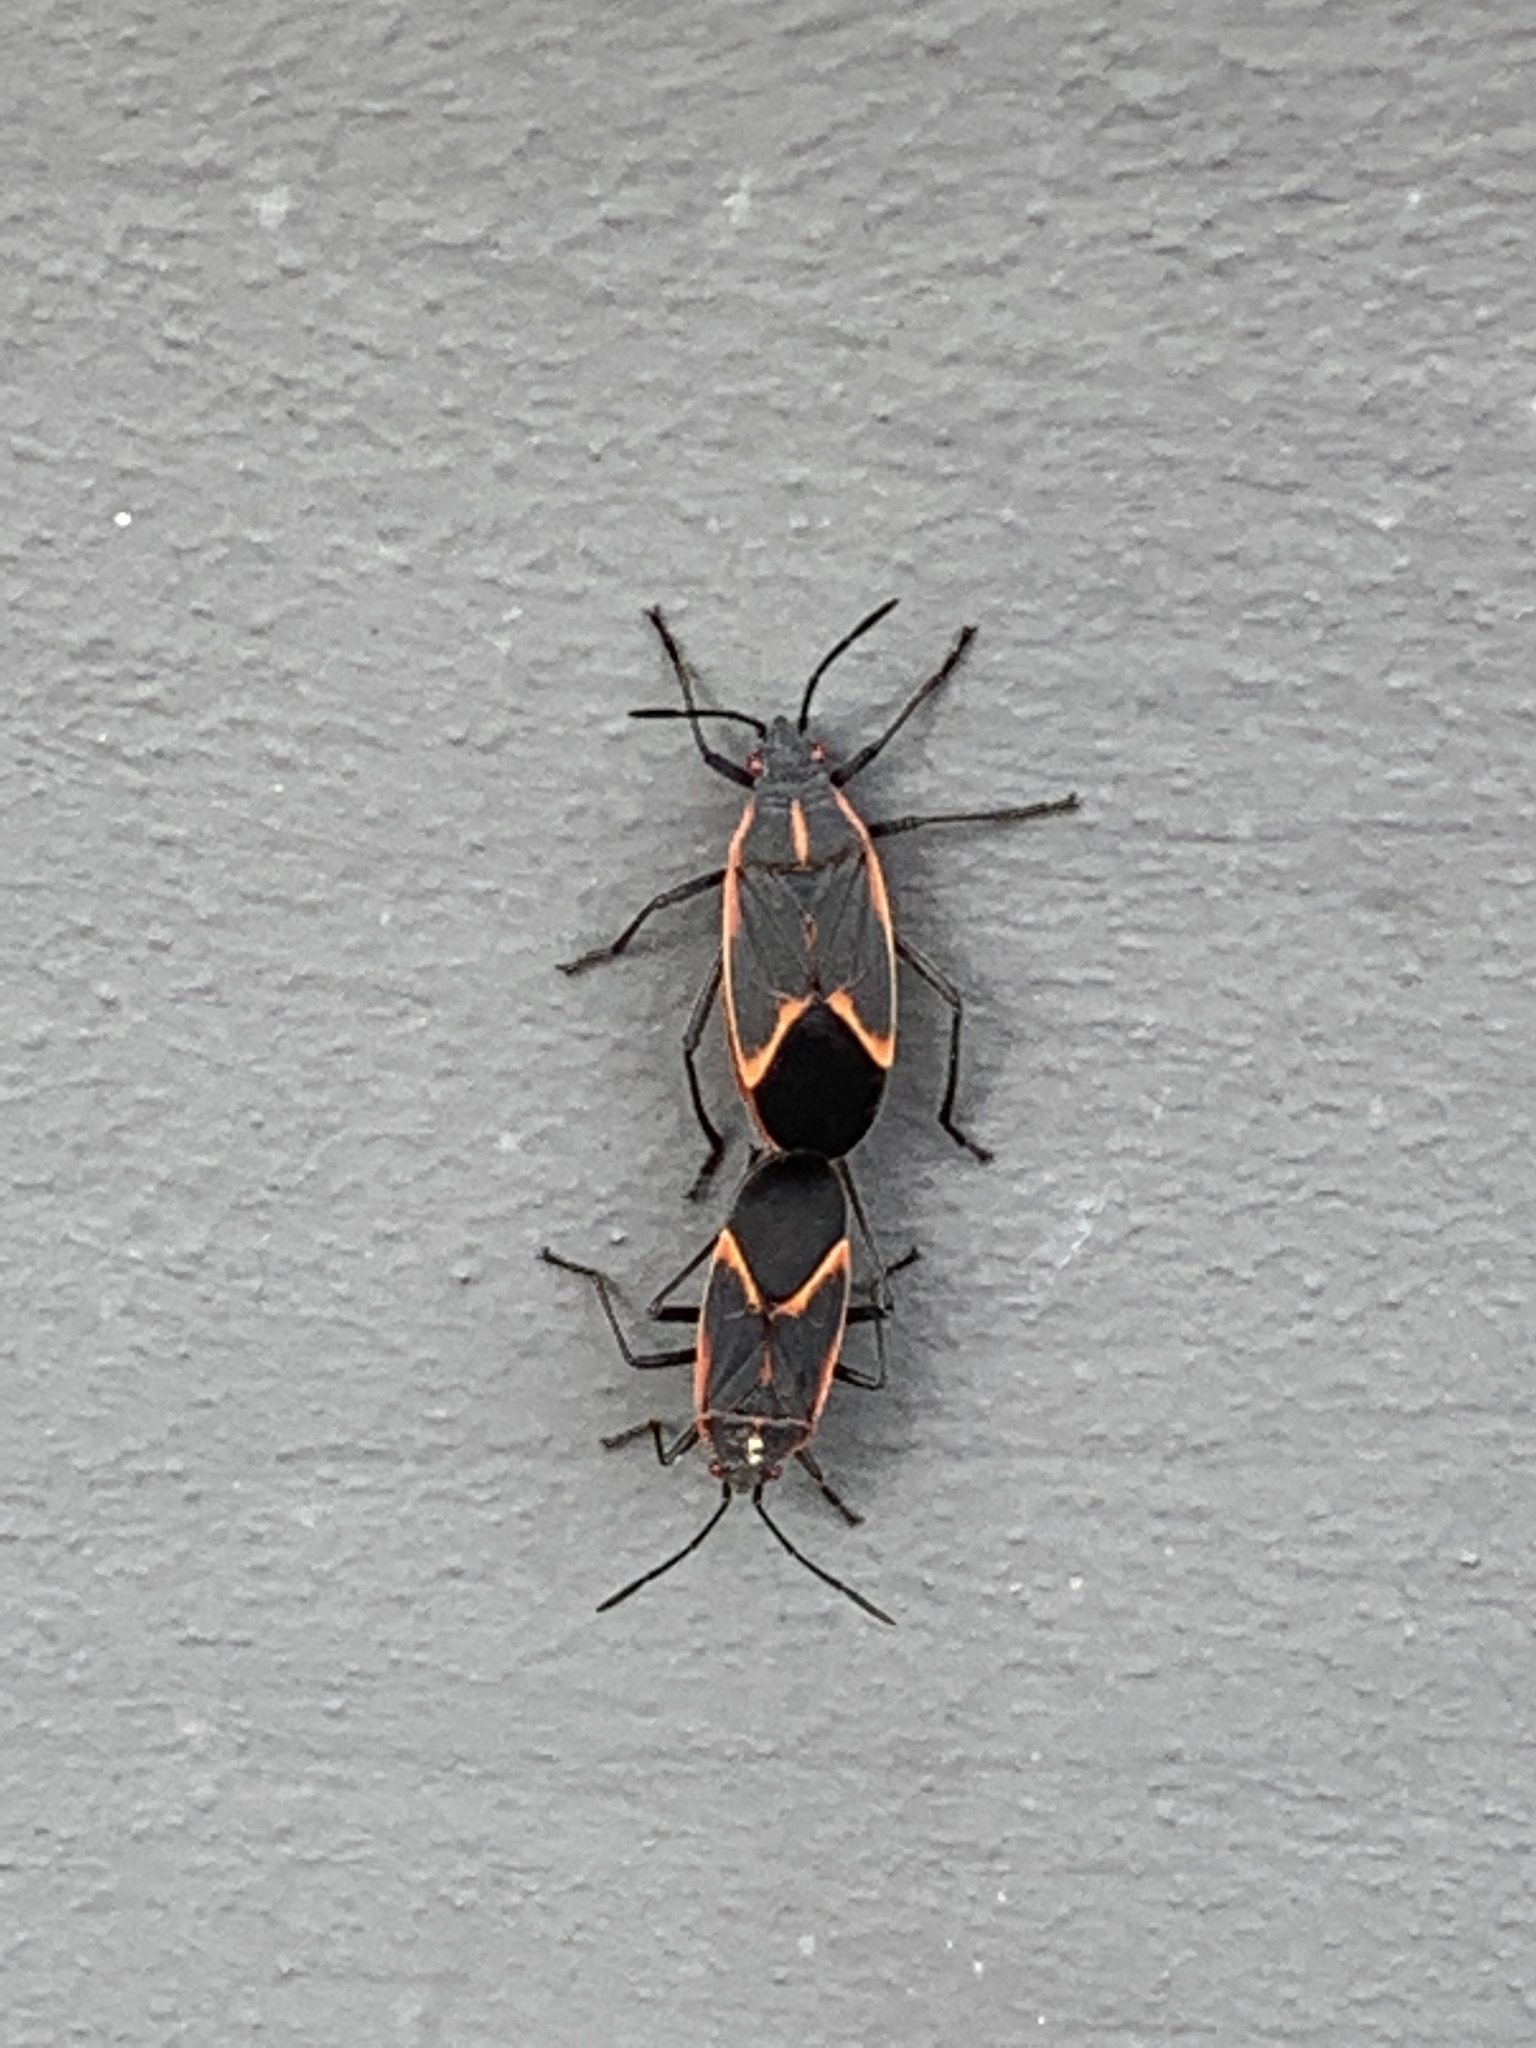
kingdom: Animalia
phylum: Arthropoda
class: Insecta
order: Hemiptera
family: Rhopalidae
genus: Boisea
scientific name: Boisea trivittata
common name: Boxelder bug
